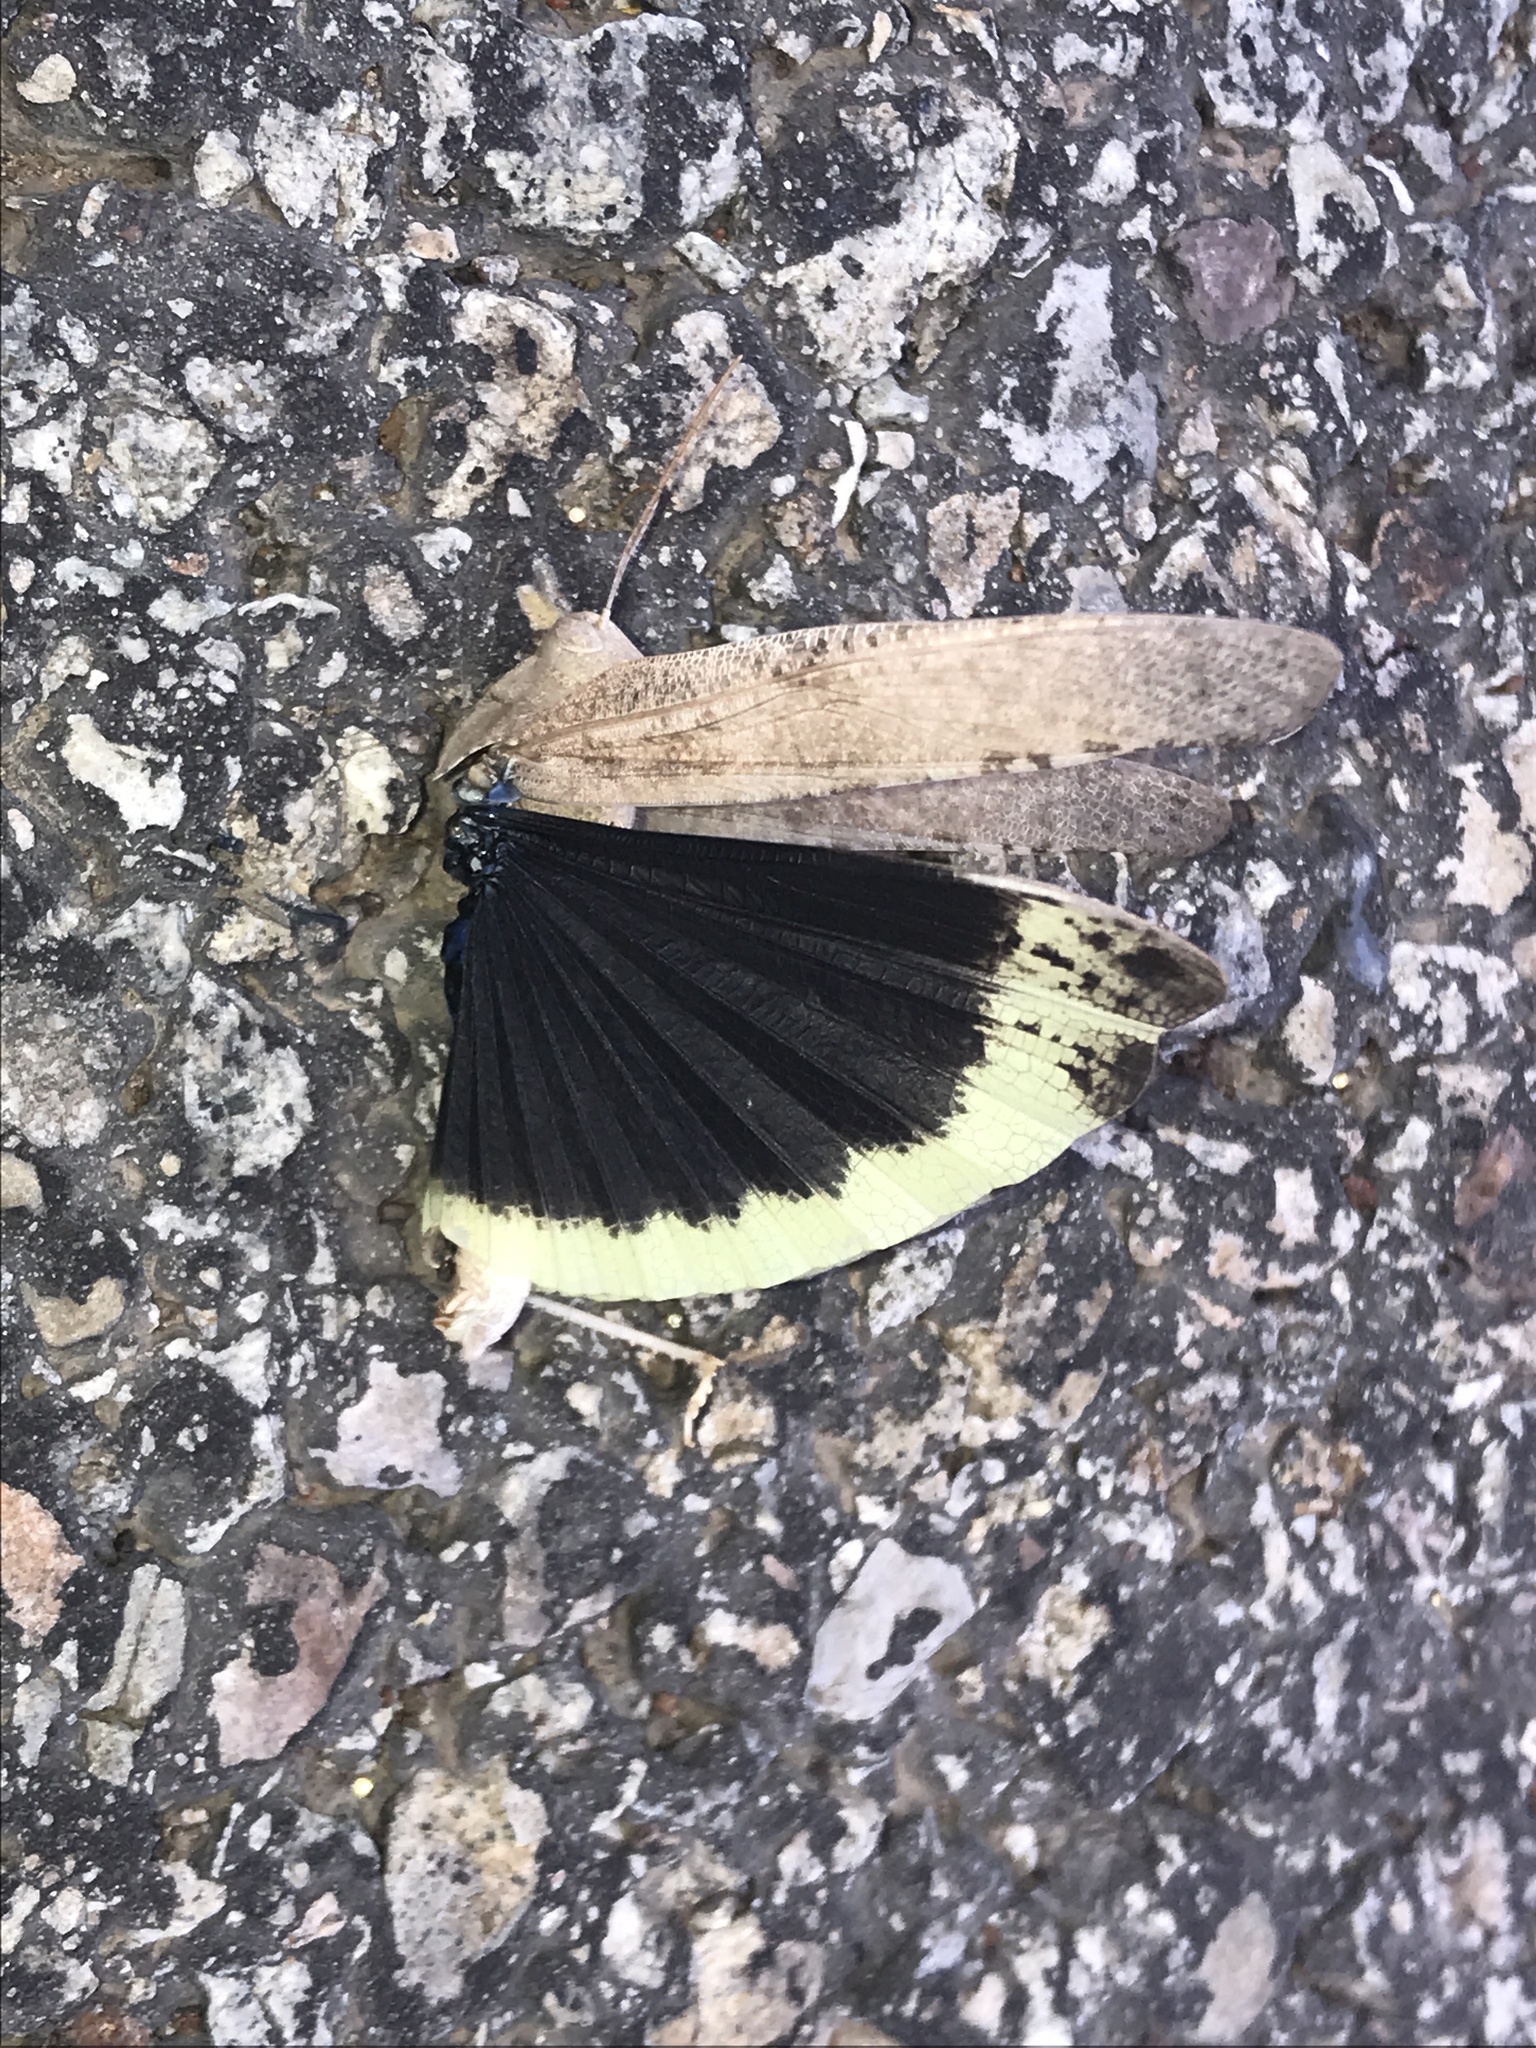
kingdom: Animalia
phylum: Arthropoda
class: Insecta
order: Orthoptera
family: Acrididae
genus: Dissosteira
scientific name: Dissosteira carolina
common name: Carolina grasshopper
